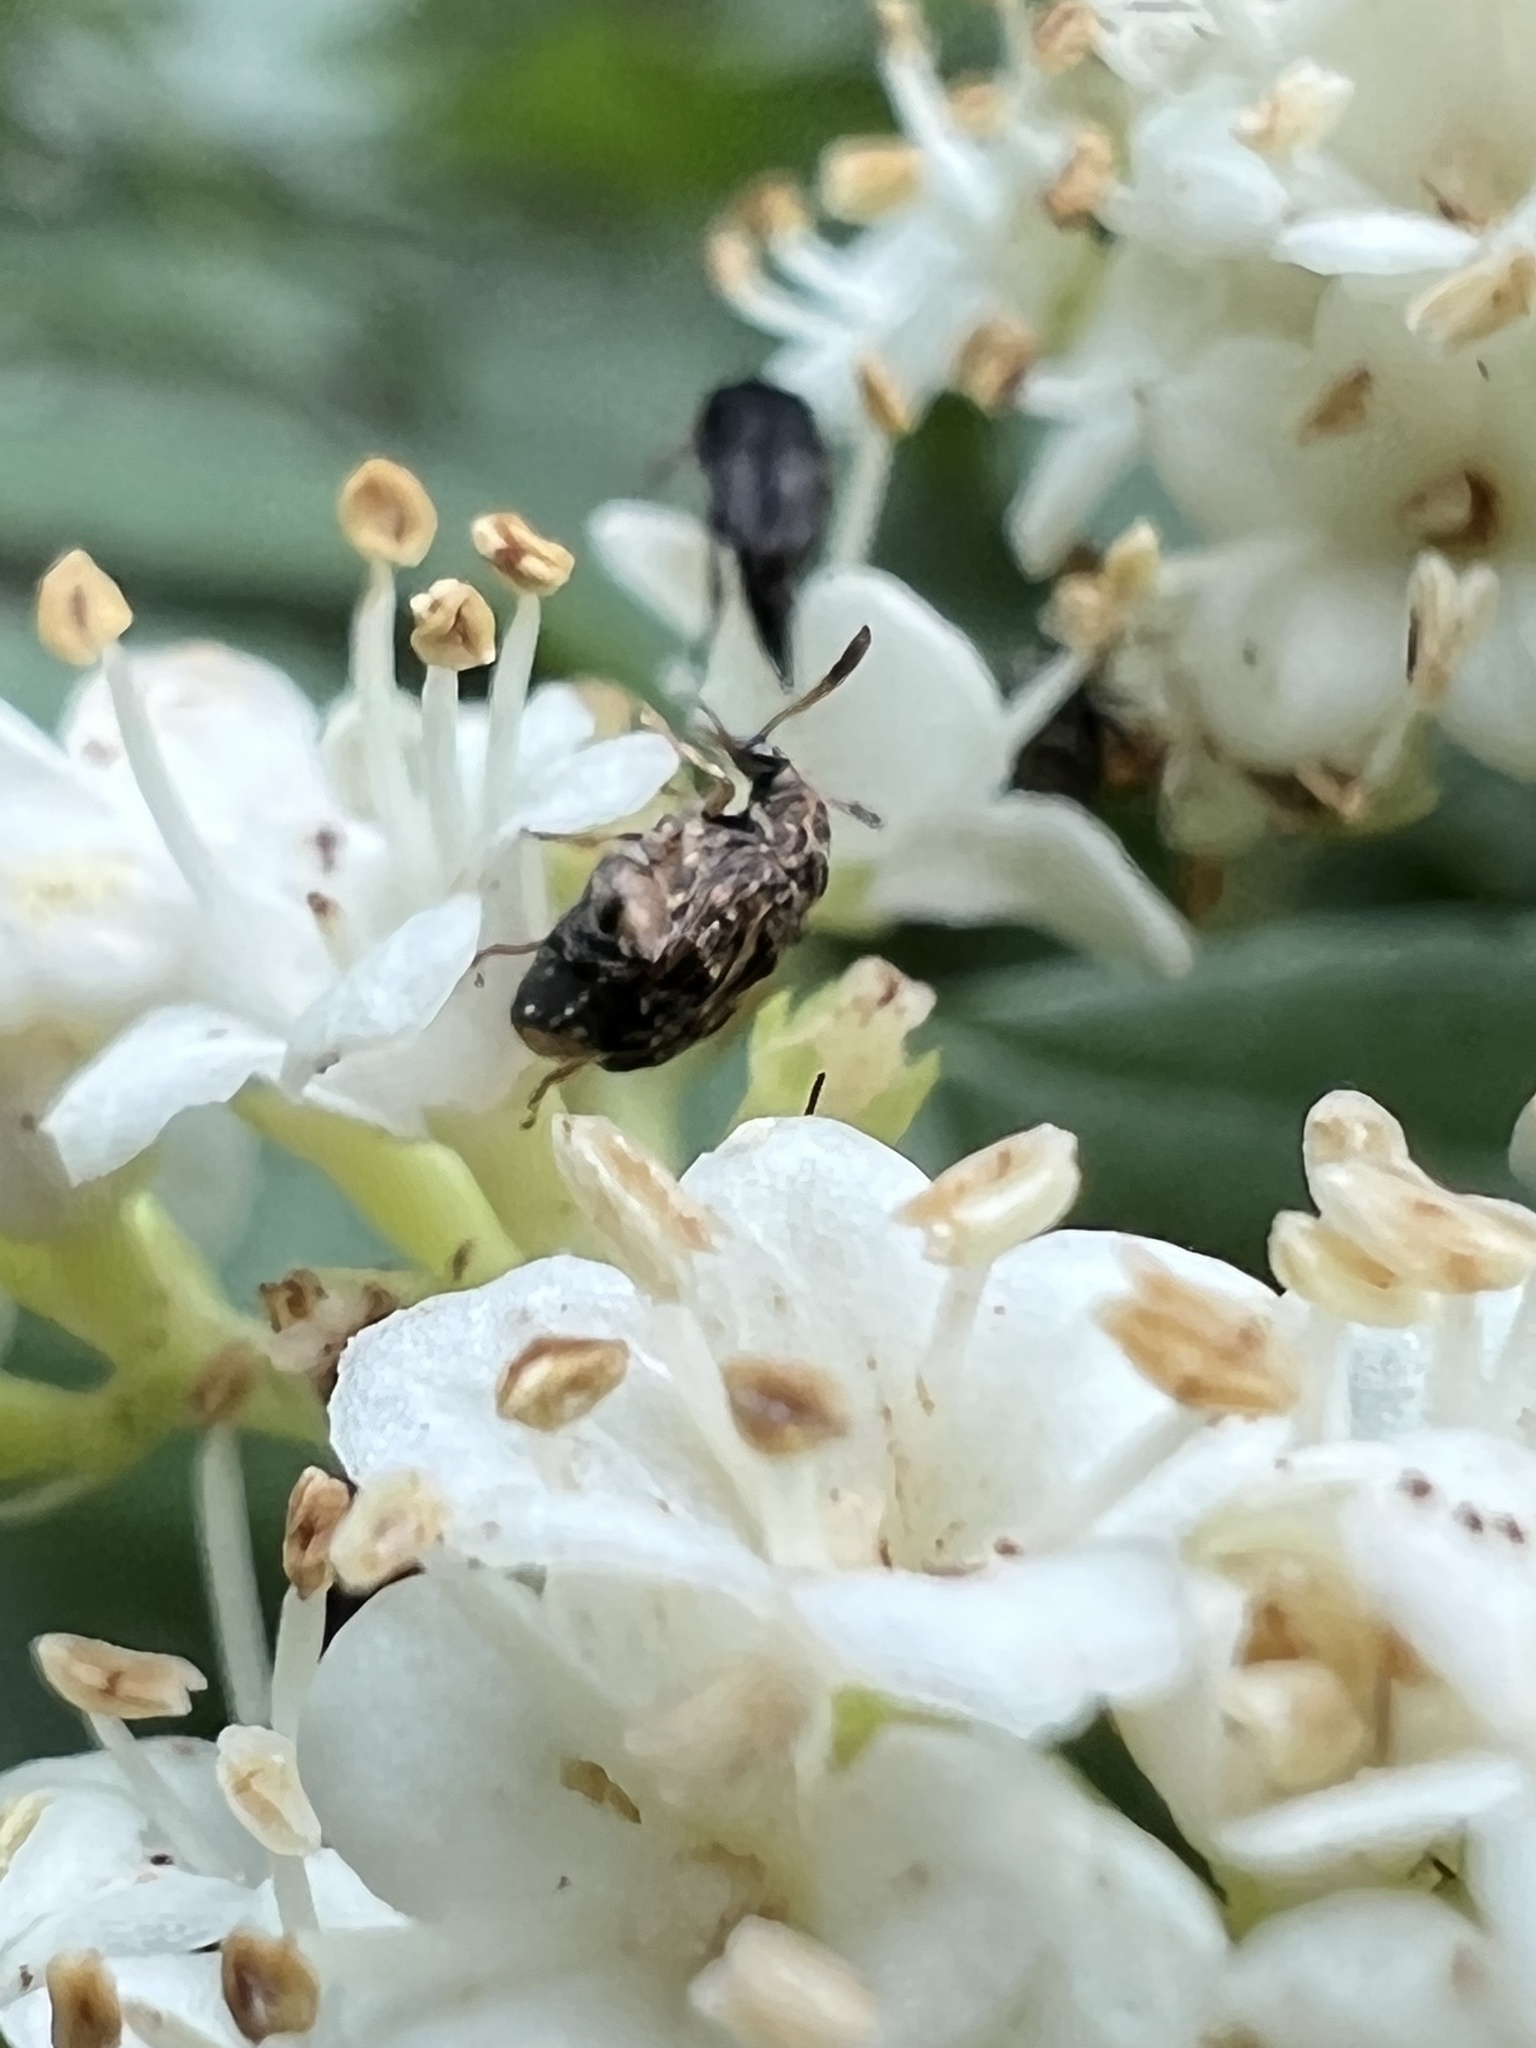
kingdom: Animalia
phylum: Arthropoda
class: Insecta
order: Coleoptera
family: Chrysomelidae
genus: Gibbobruchus
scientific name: Gibbobruchus mimus
